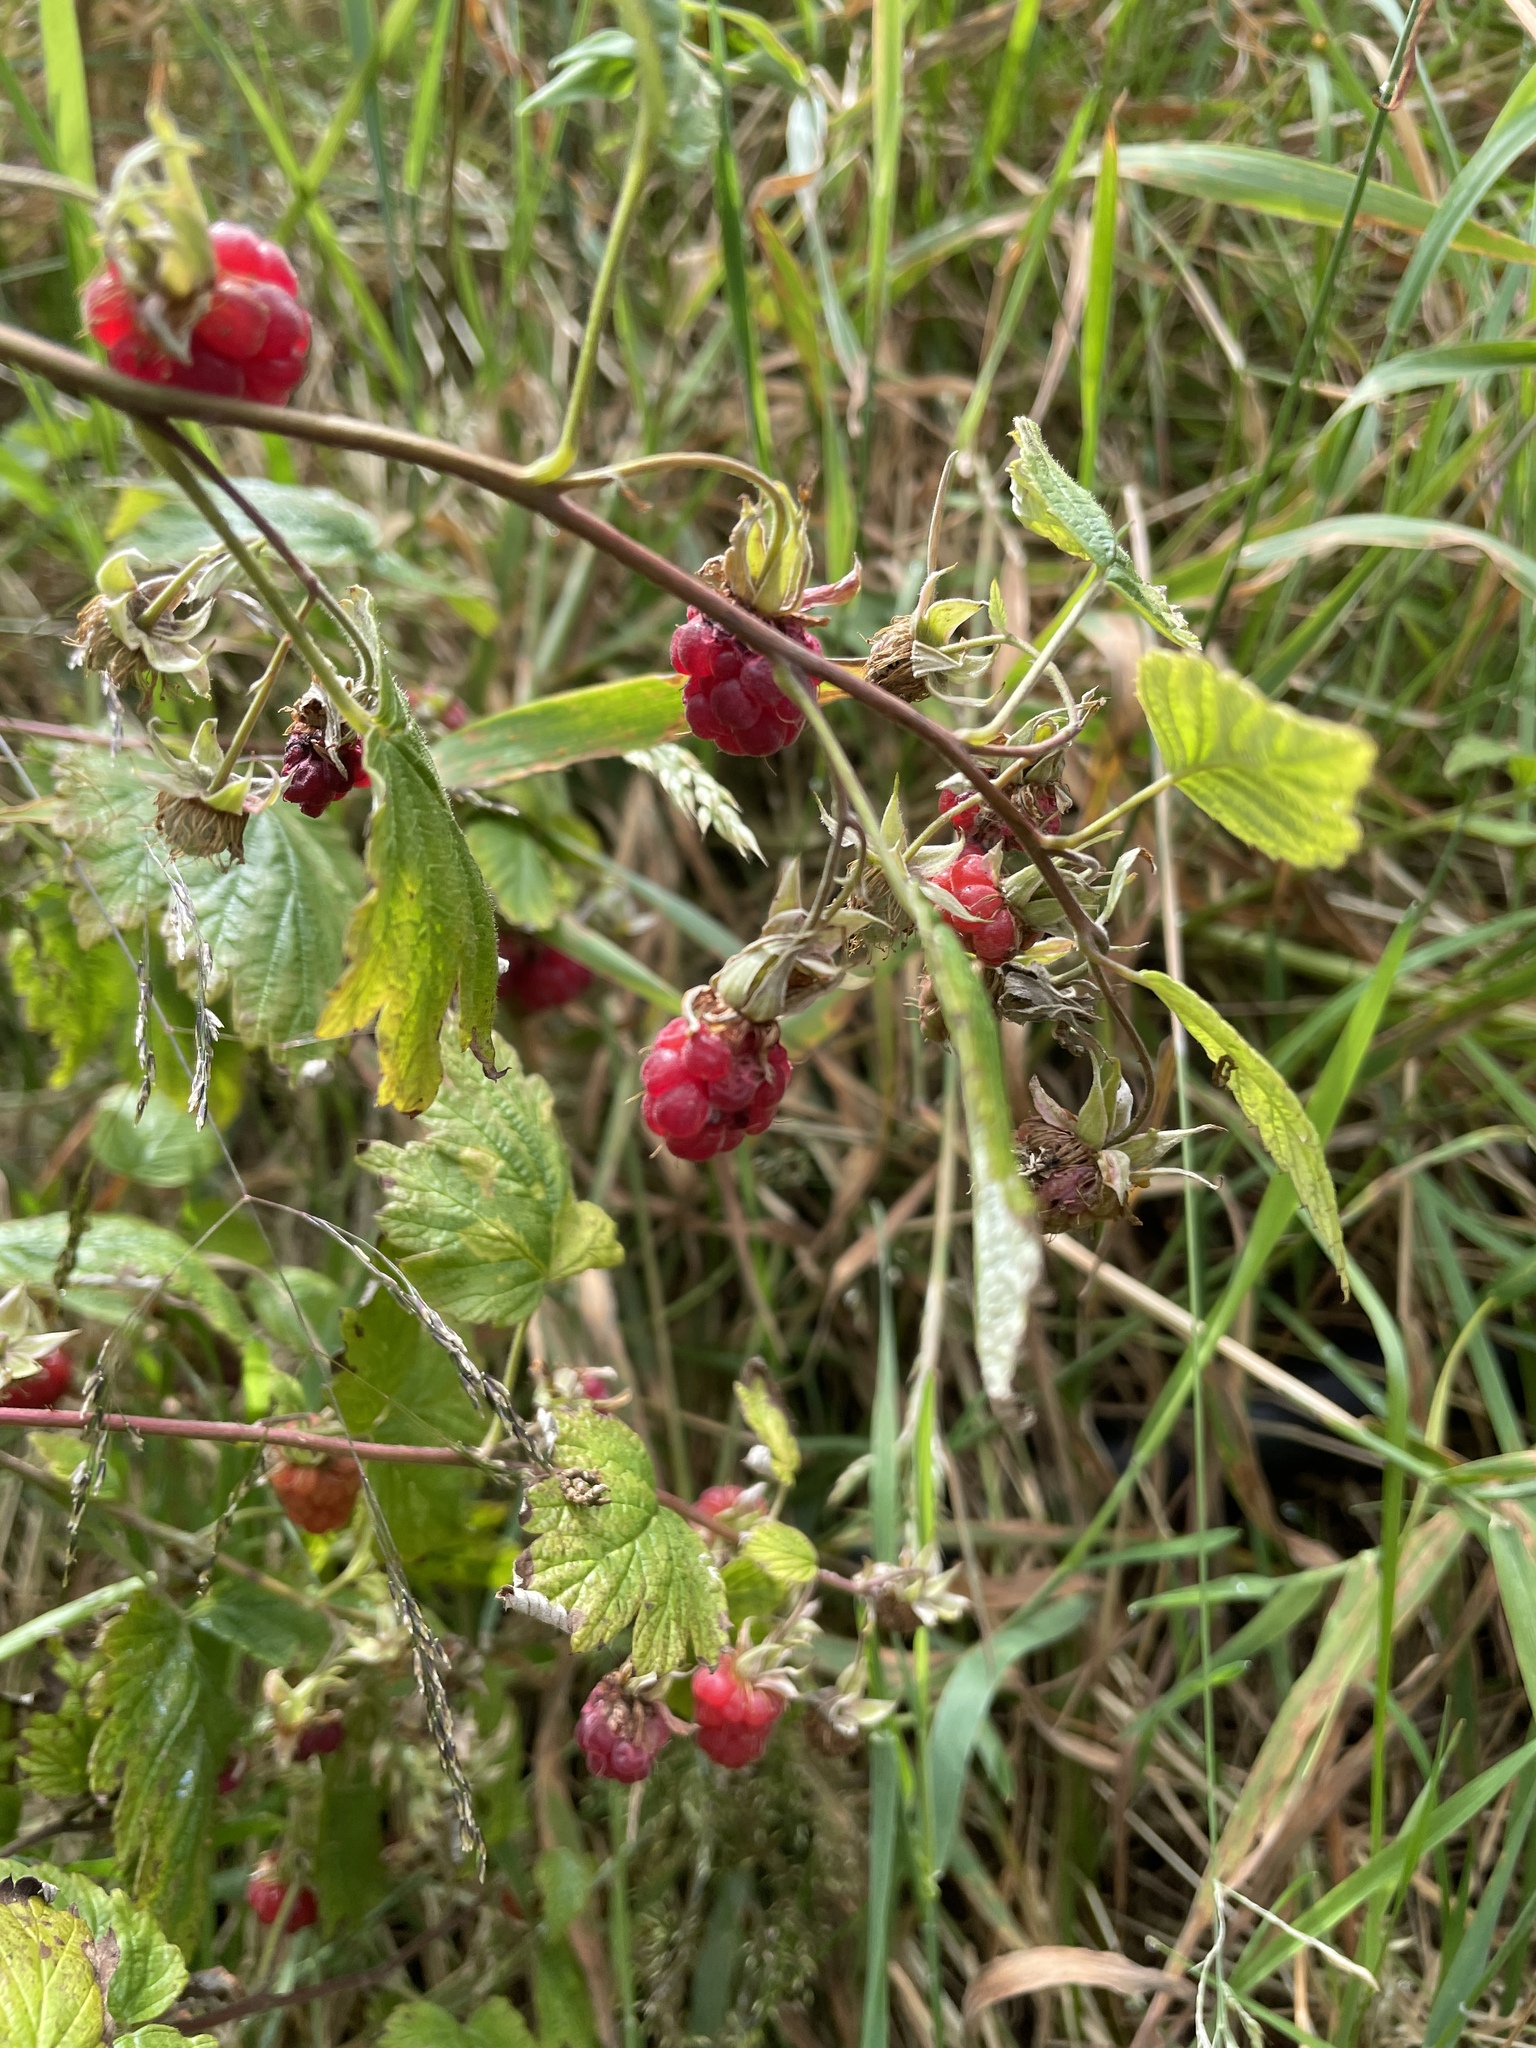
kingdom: Plantae
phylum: Tracheophyta
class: Magnoliopsida
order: Rosales
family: Rosaceae
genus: Rubus
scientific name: Rubus idaeus
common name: Raspberry
